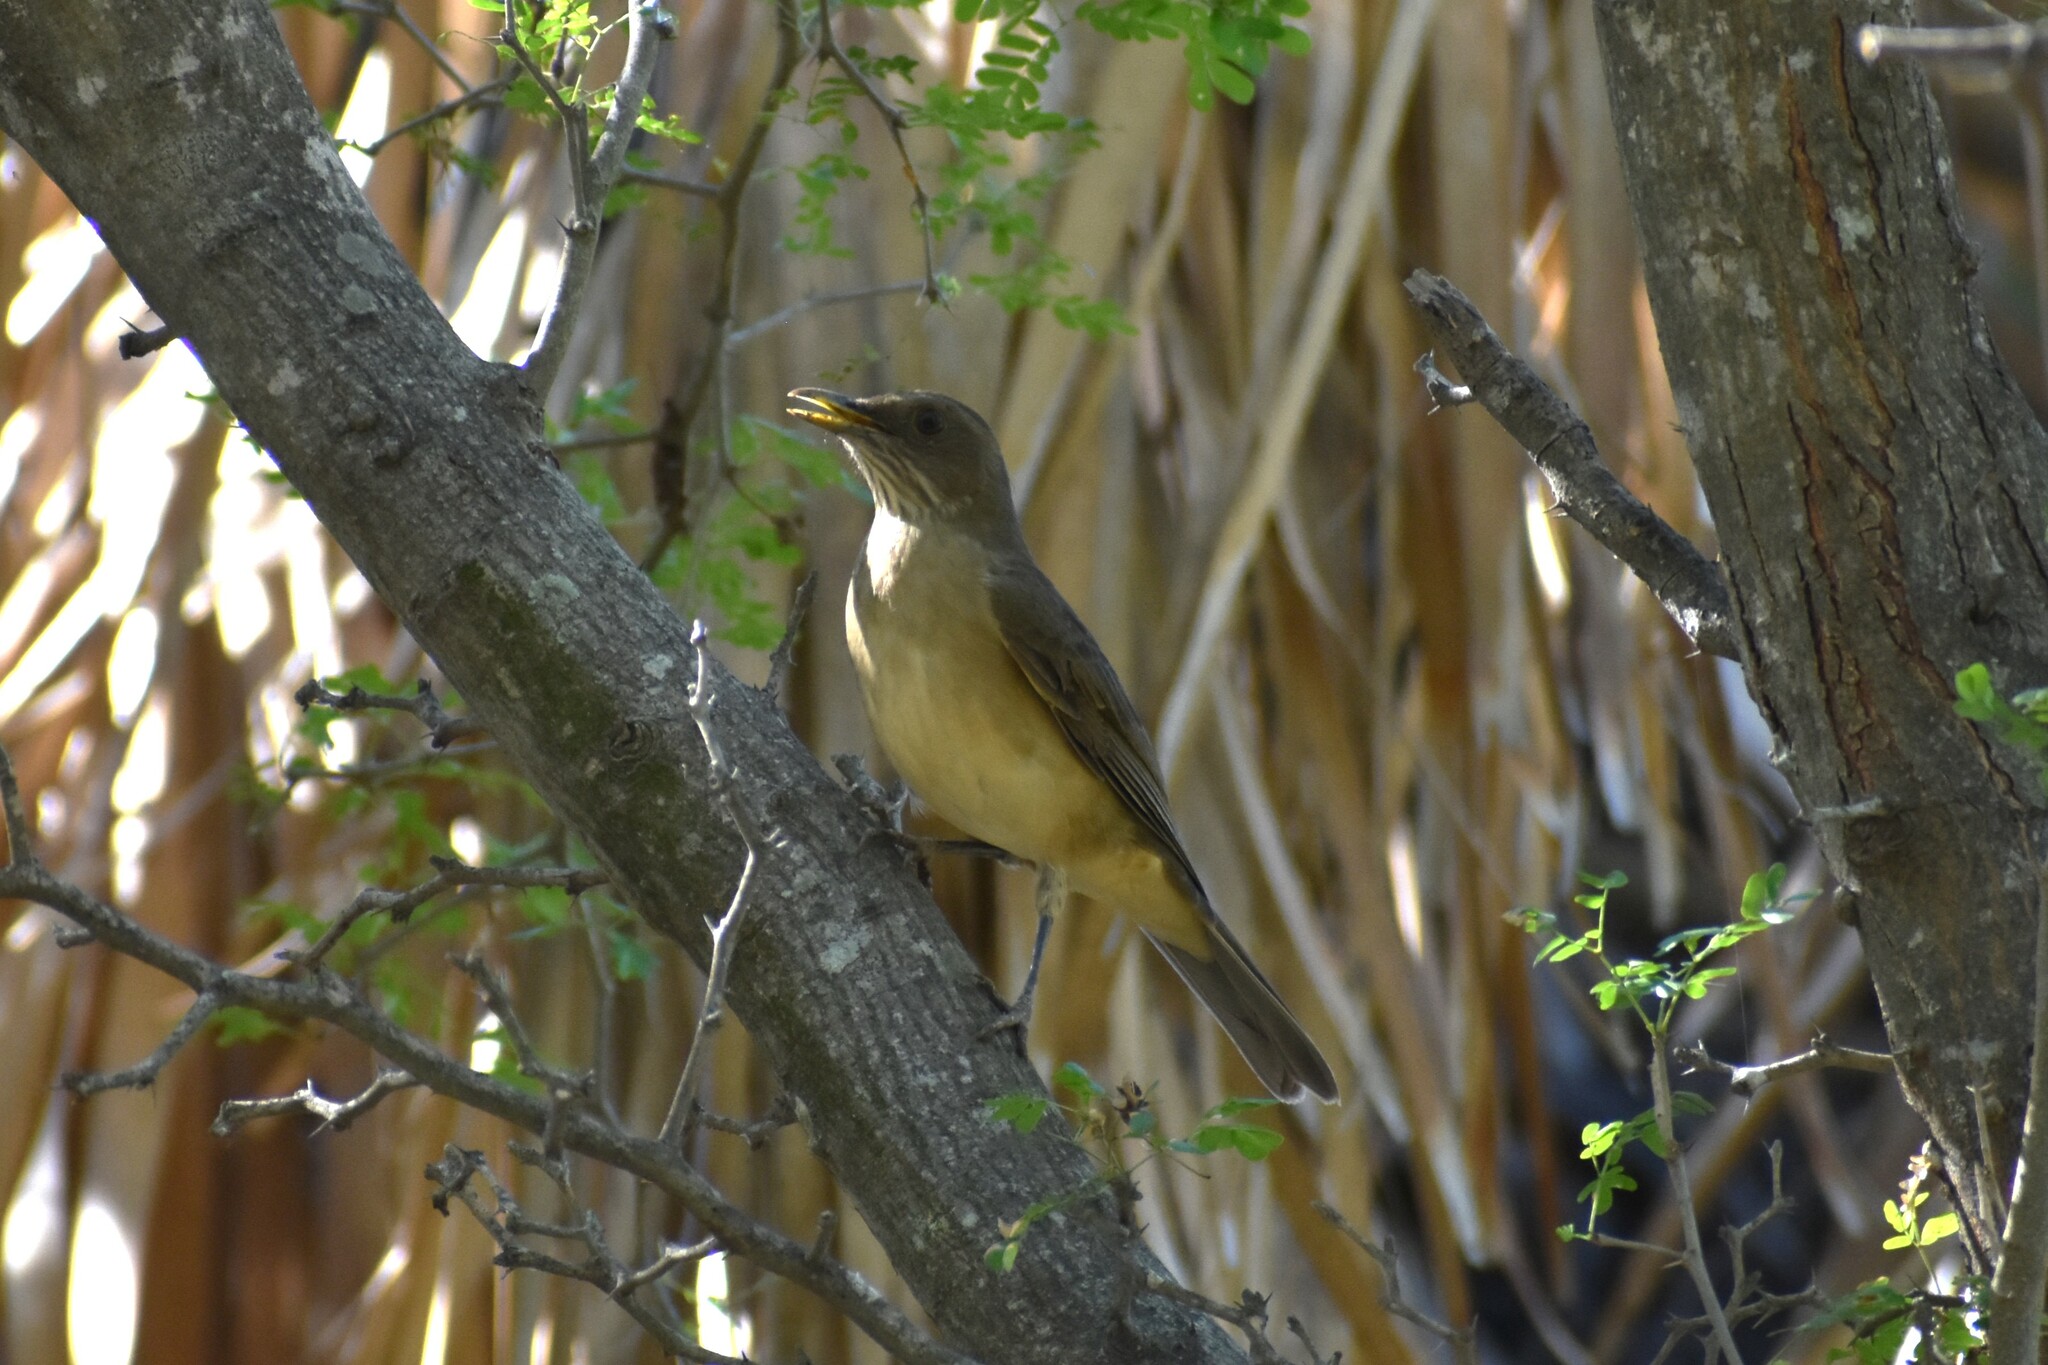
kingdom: Animalia
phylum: Chordata
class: Aves
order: Passeriformes
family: Turdidae
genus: Turdus
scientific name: Turdus grayi
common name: Clay-colored thrush
